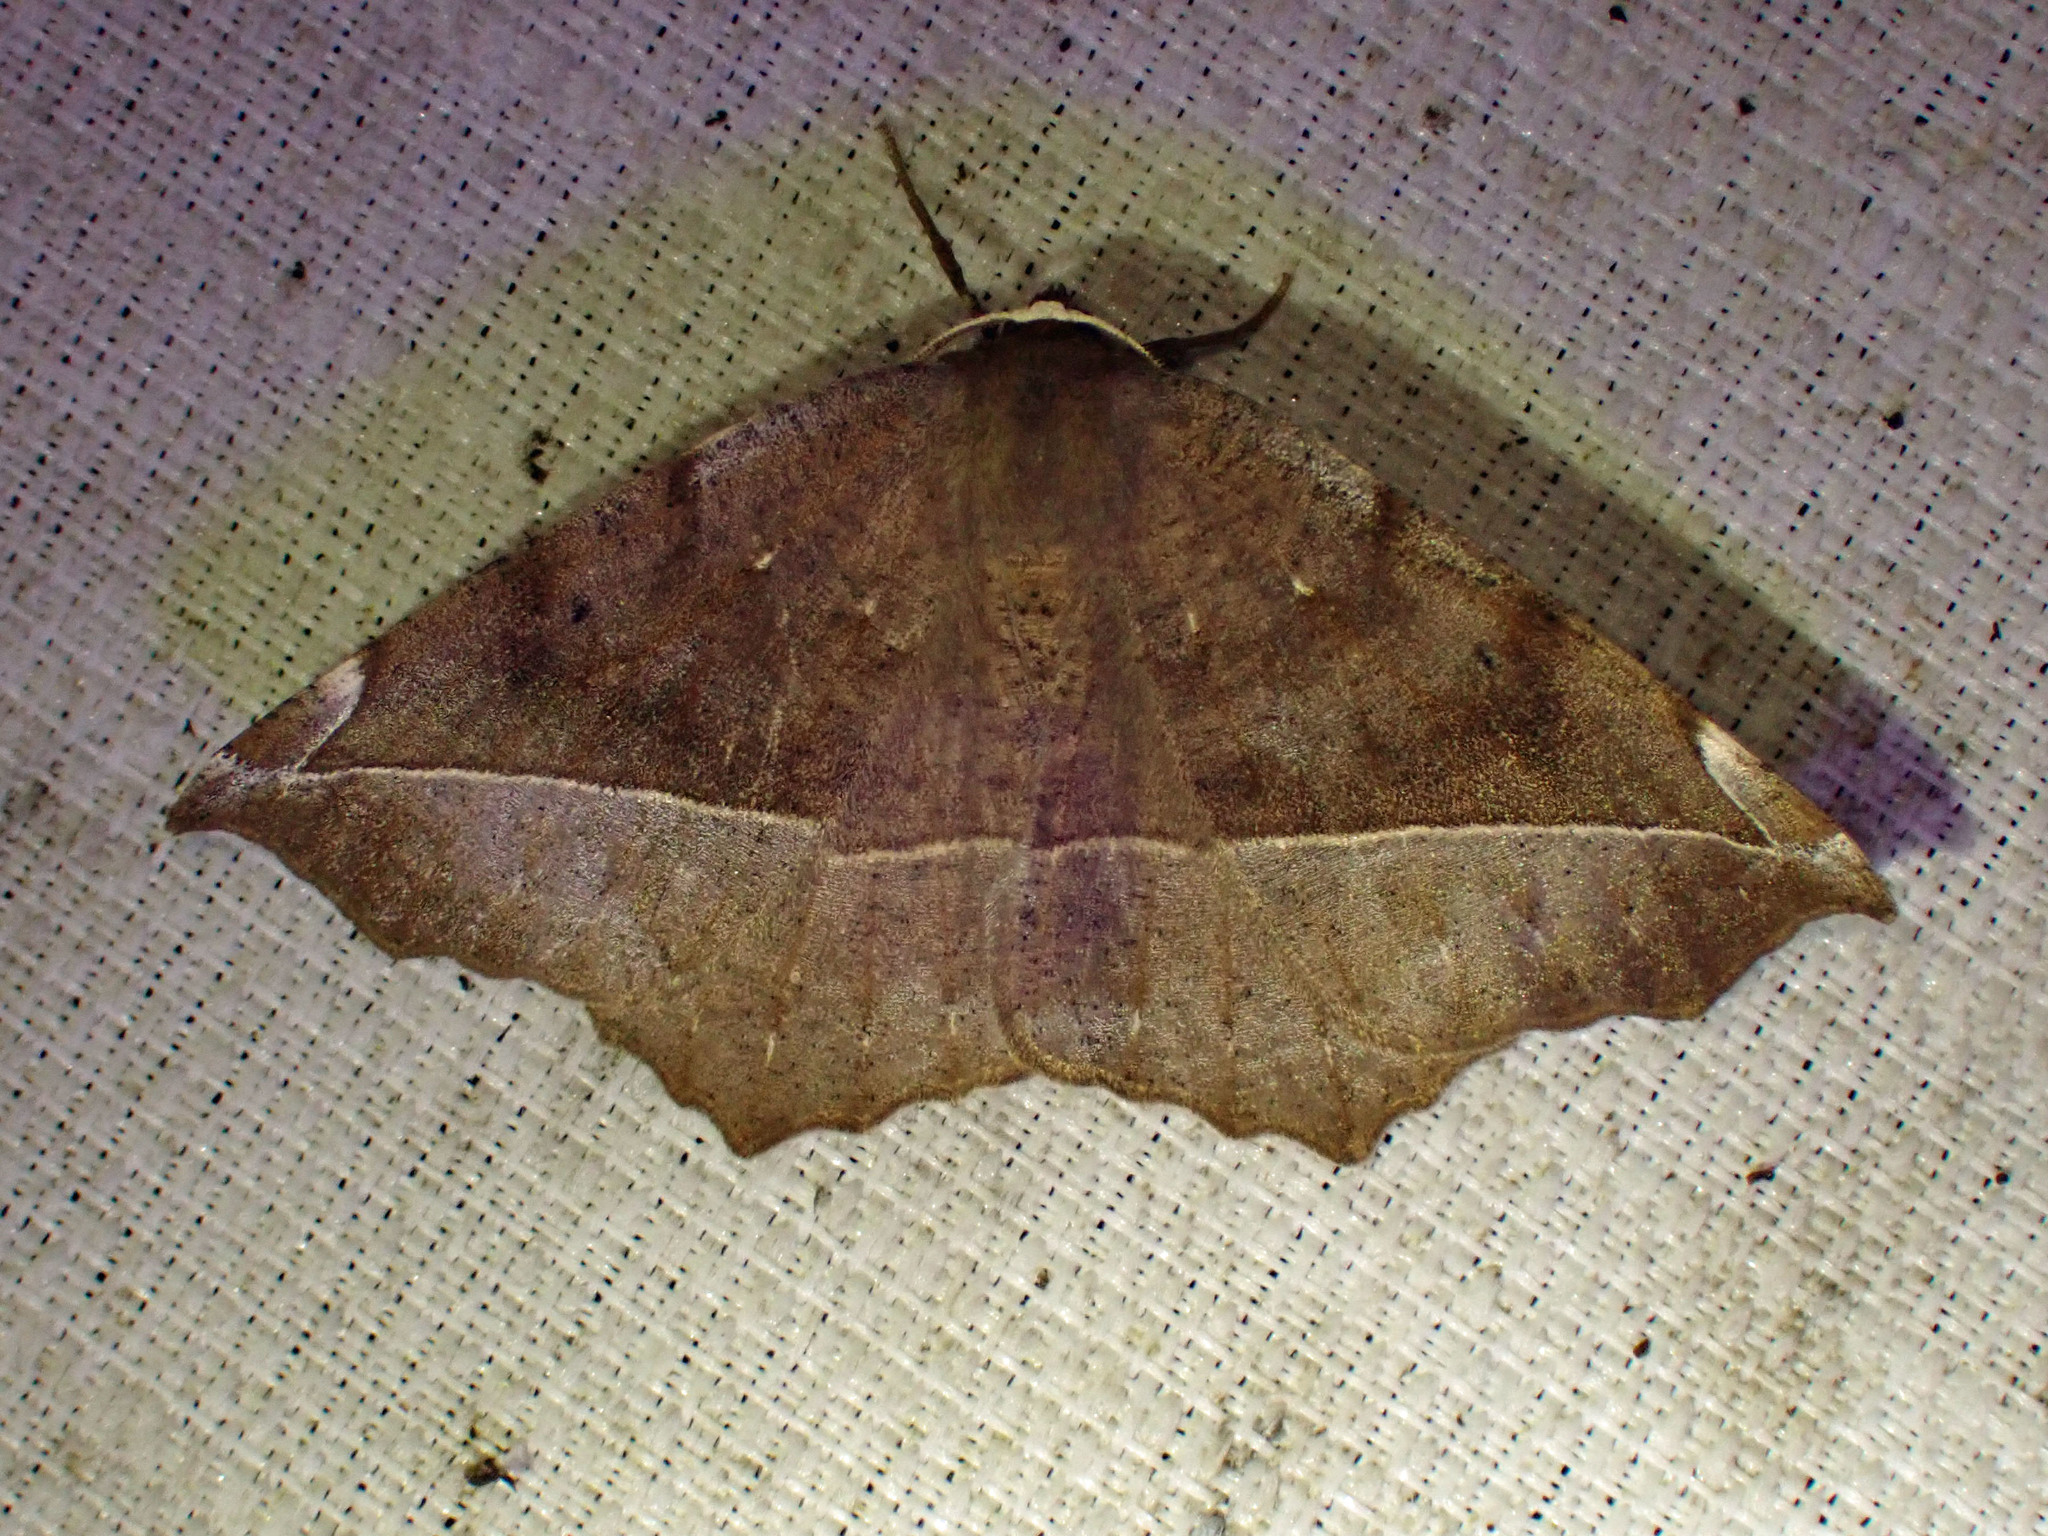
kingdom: Animalia
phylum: Arthropoda
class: Insecta
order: Lepidoptera
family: Geometridae
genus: Eutrapela
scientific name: Eutrapela clemataria
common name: Curved-toothed geometer
